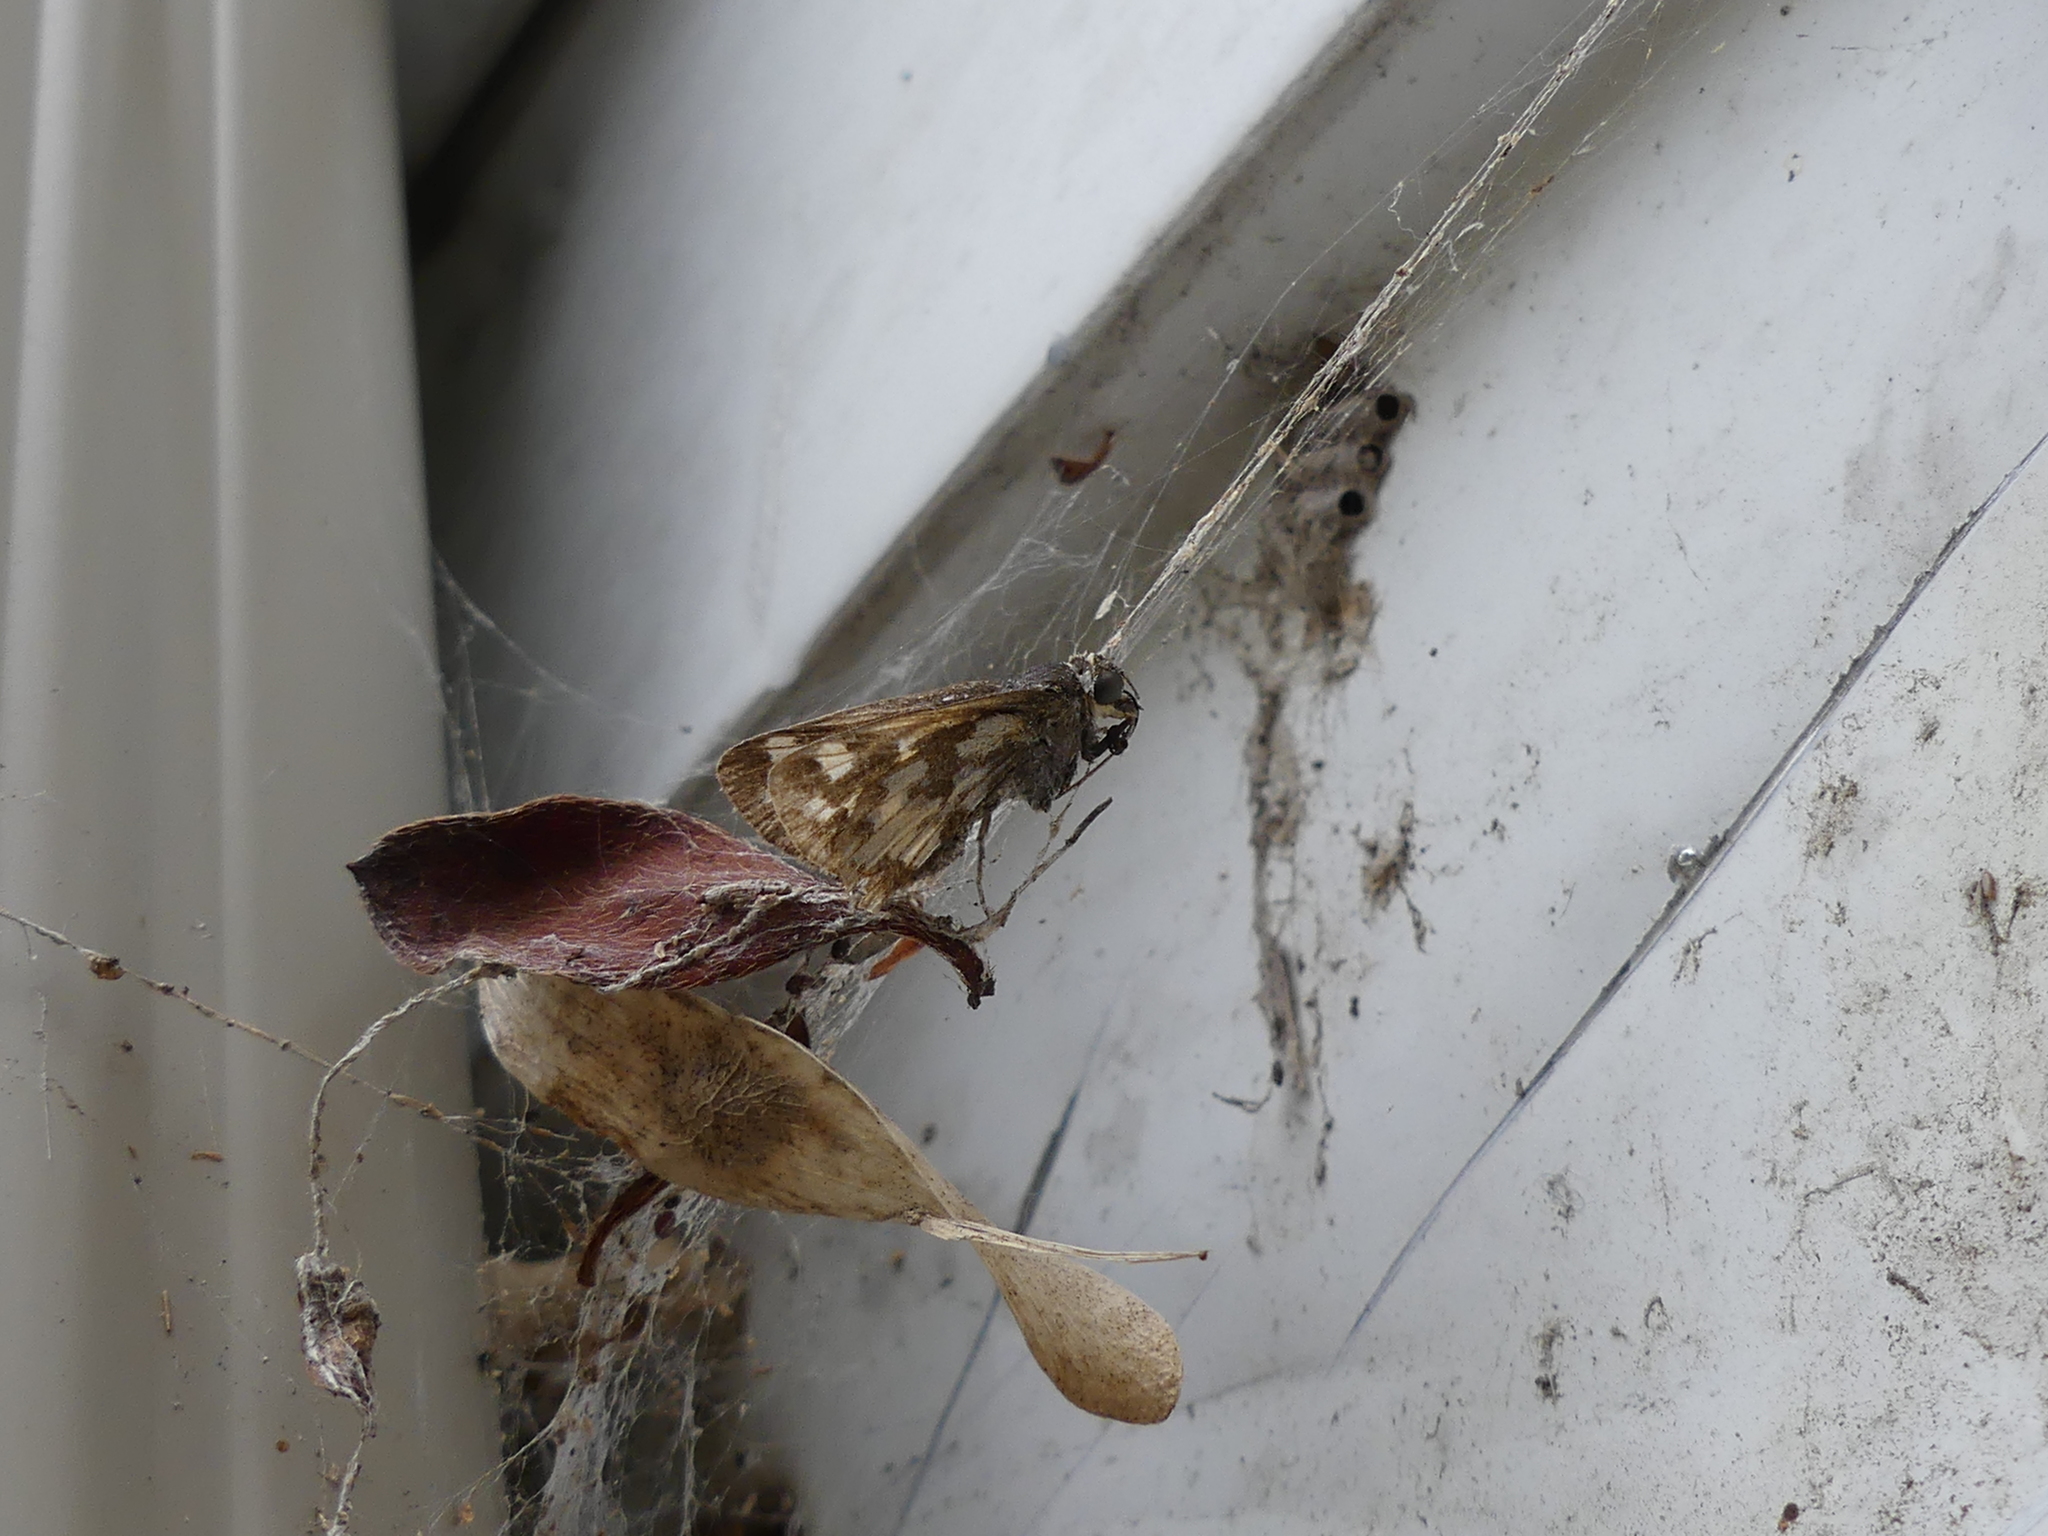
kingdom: Animalia
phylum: Arthropoda
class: Insecta
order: Lepidoptera
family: Hesperiidae
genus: Polites
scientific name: Polites coras
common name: Peck's skipper
